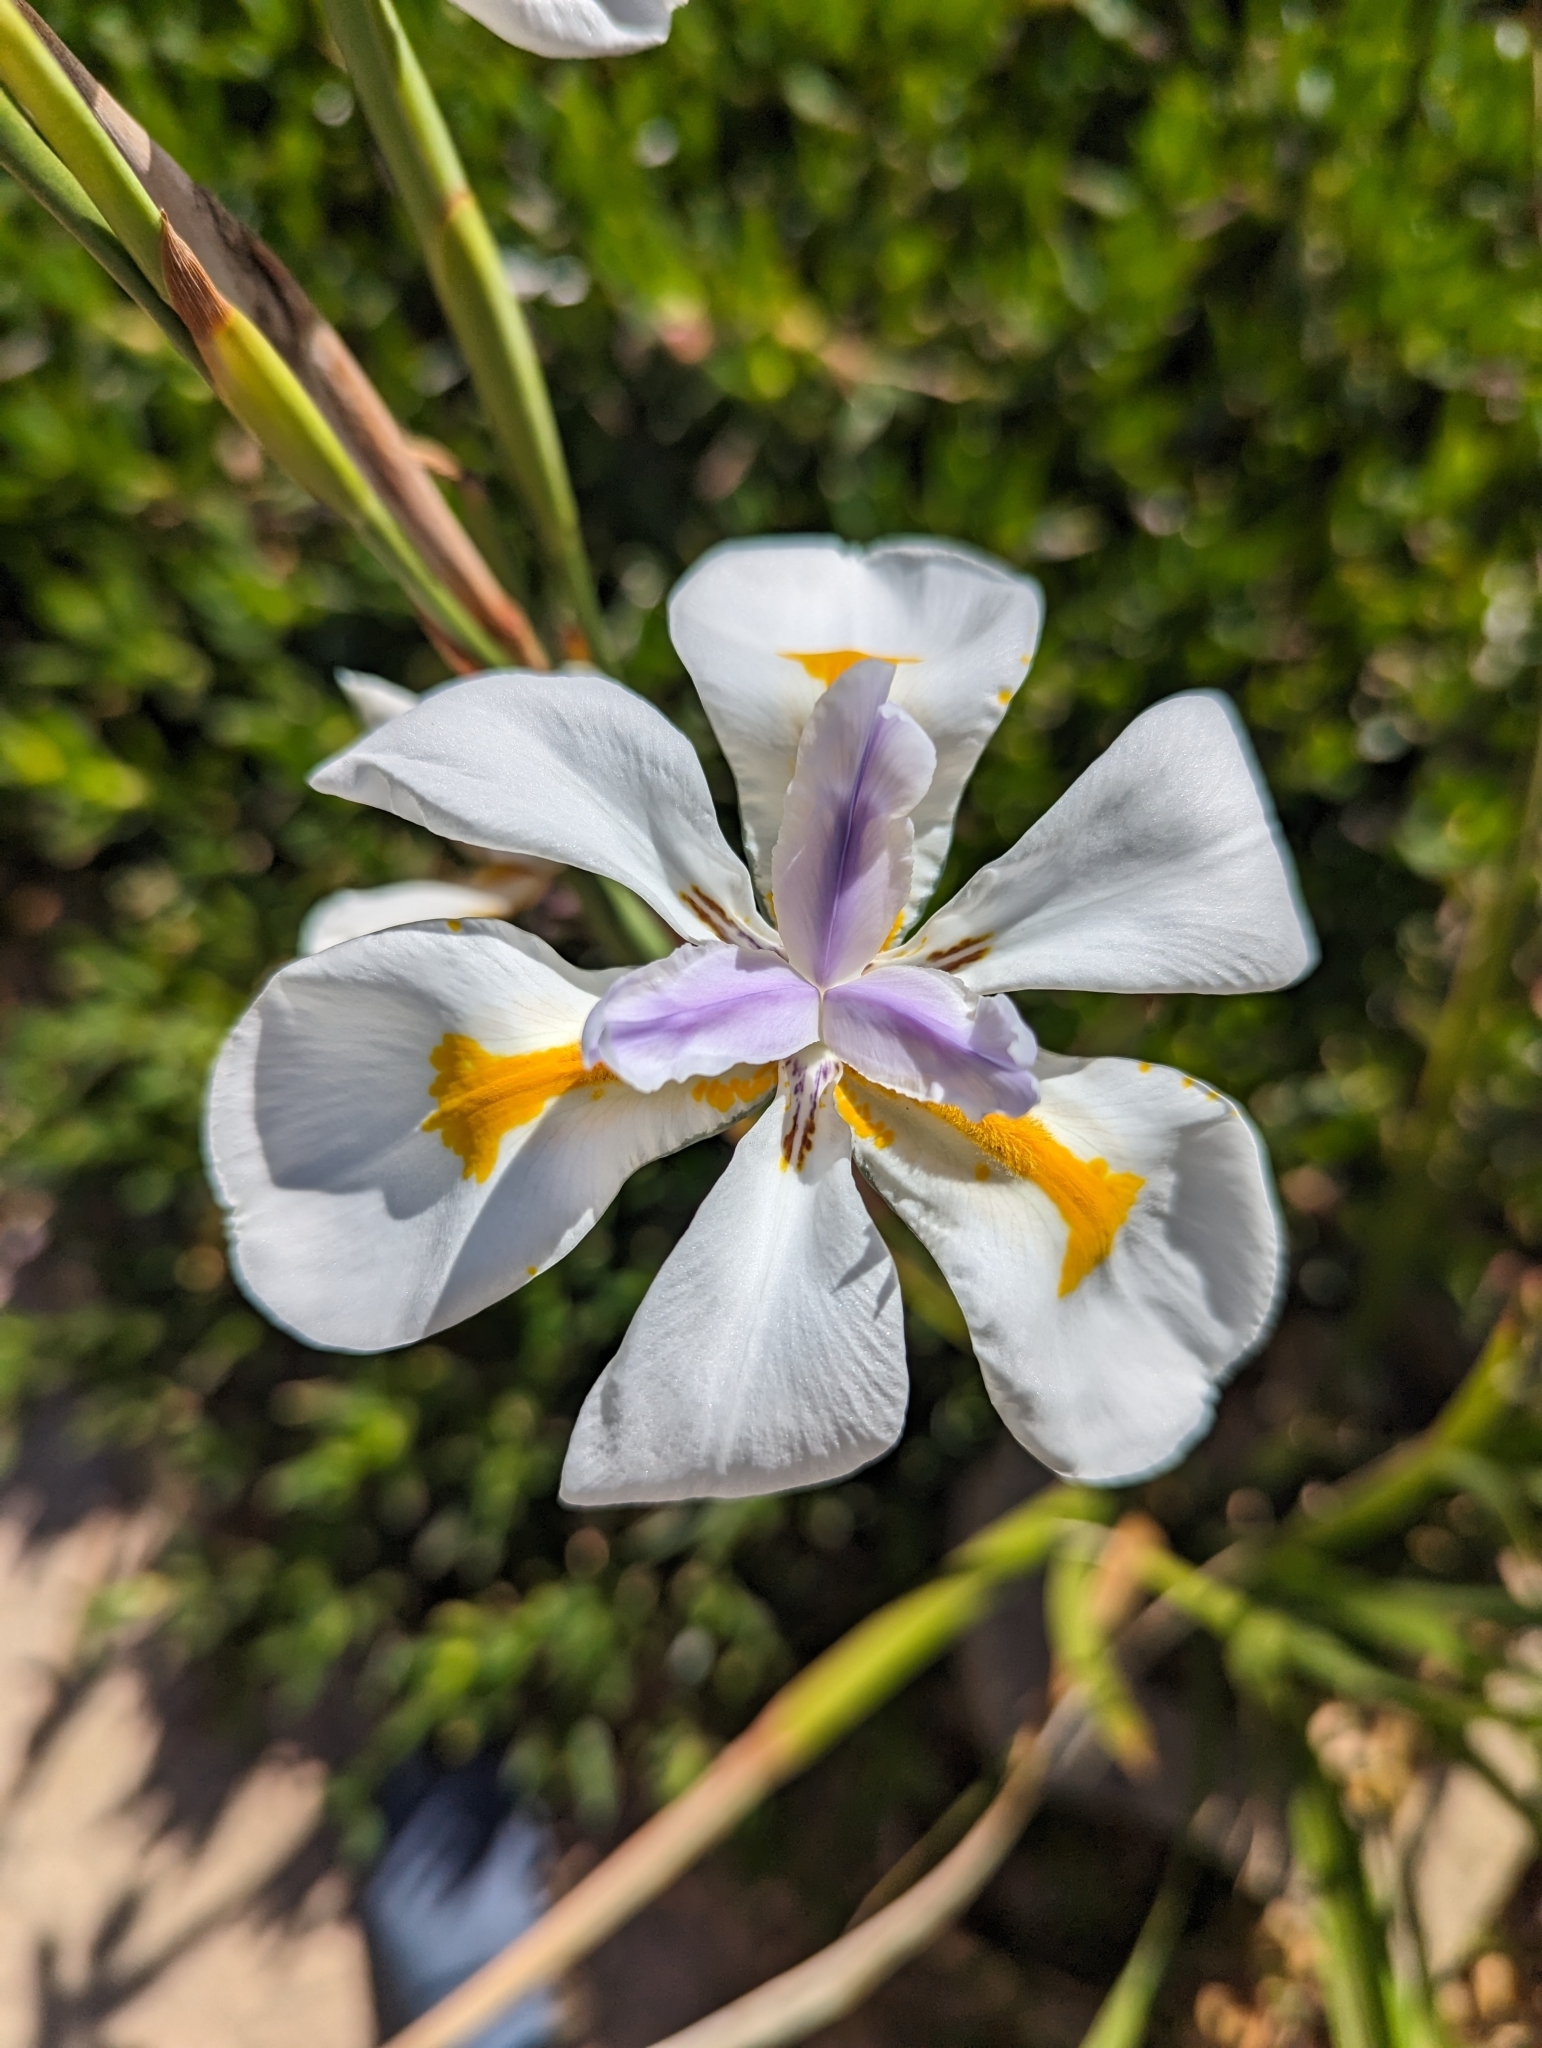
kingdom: Plantae
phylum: Tracheophyta
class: Liliopsida
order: Asparagales
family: Iridaceae
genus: Dietes
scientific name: Dietes grandiflora
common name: Wild iris
